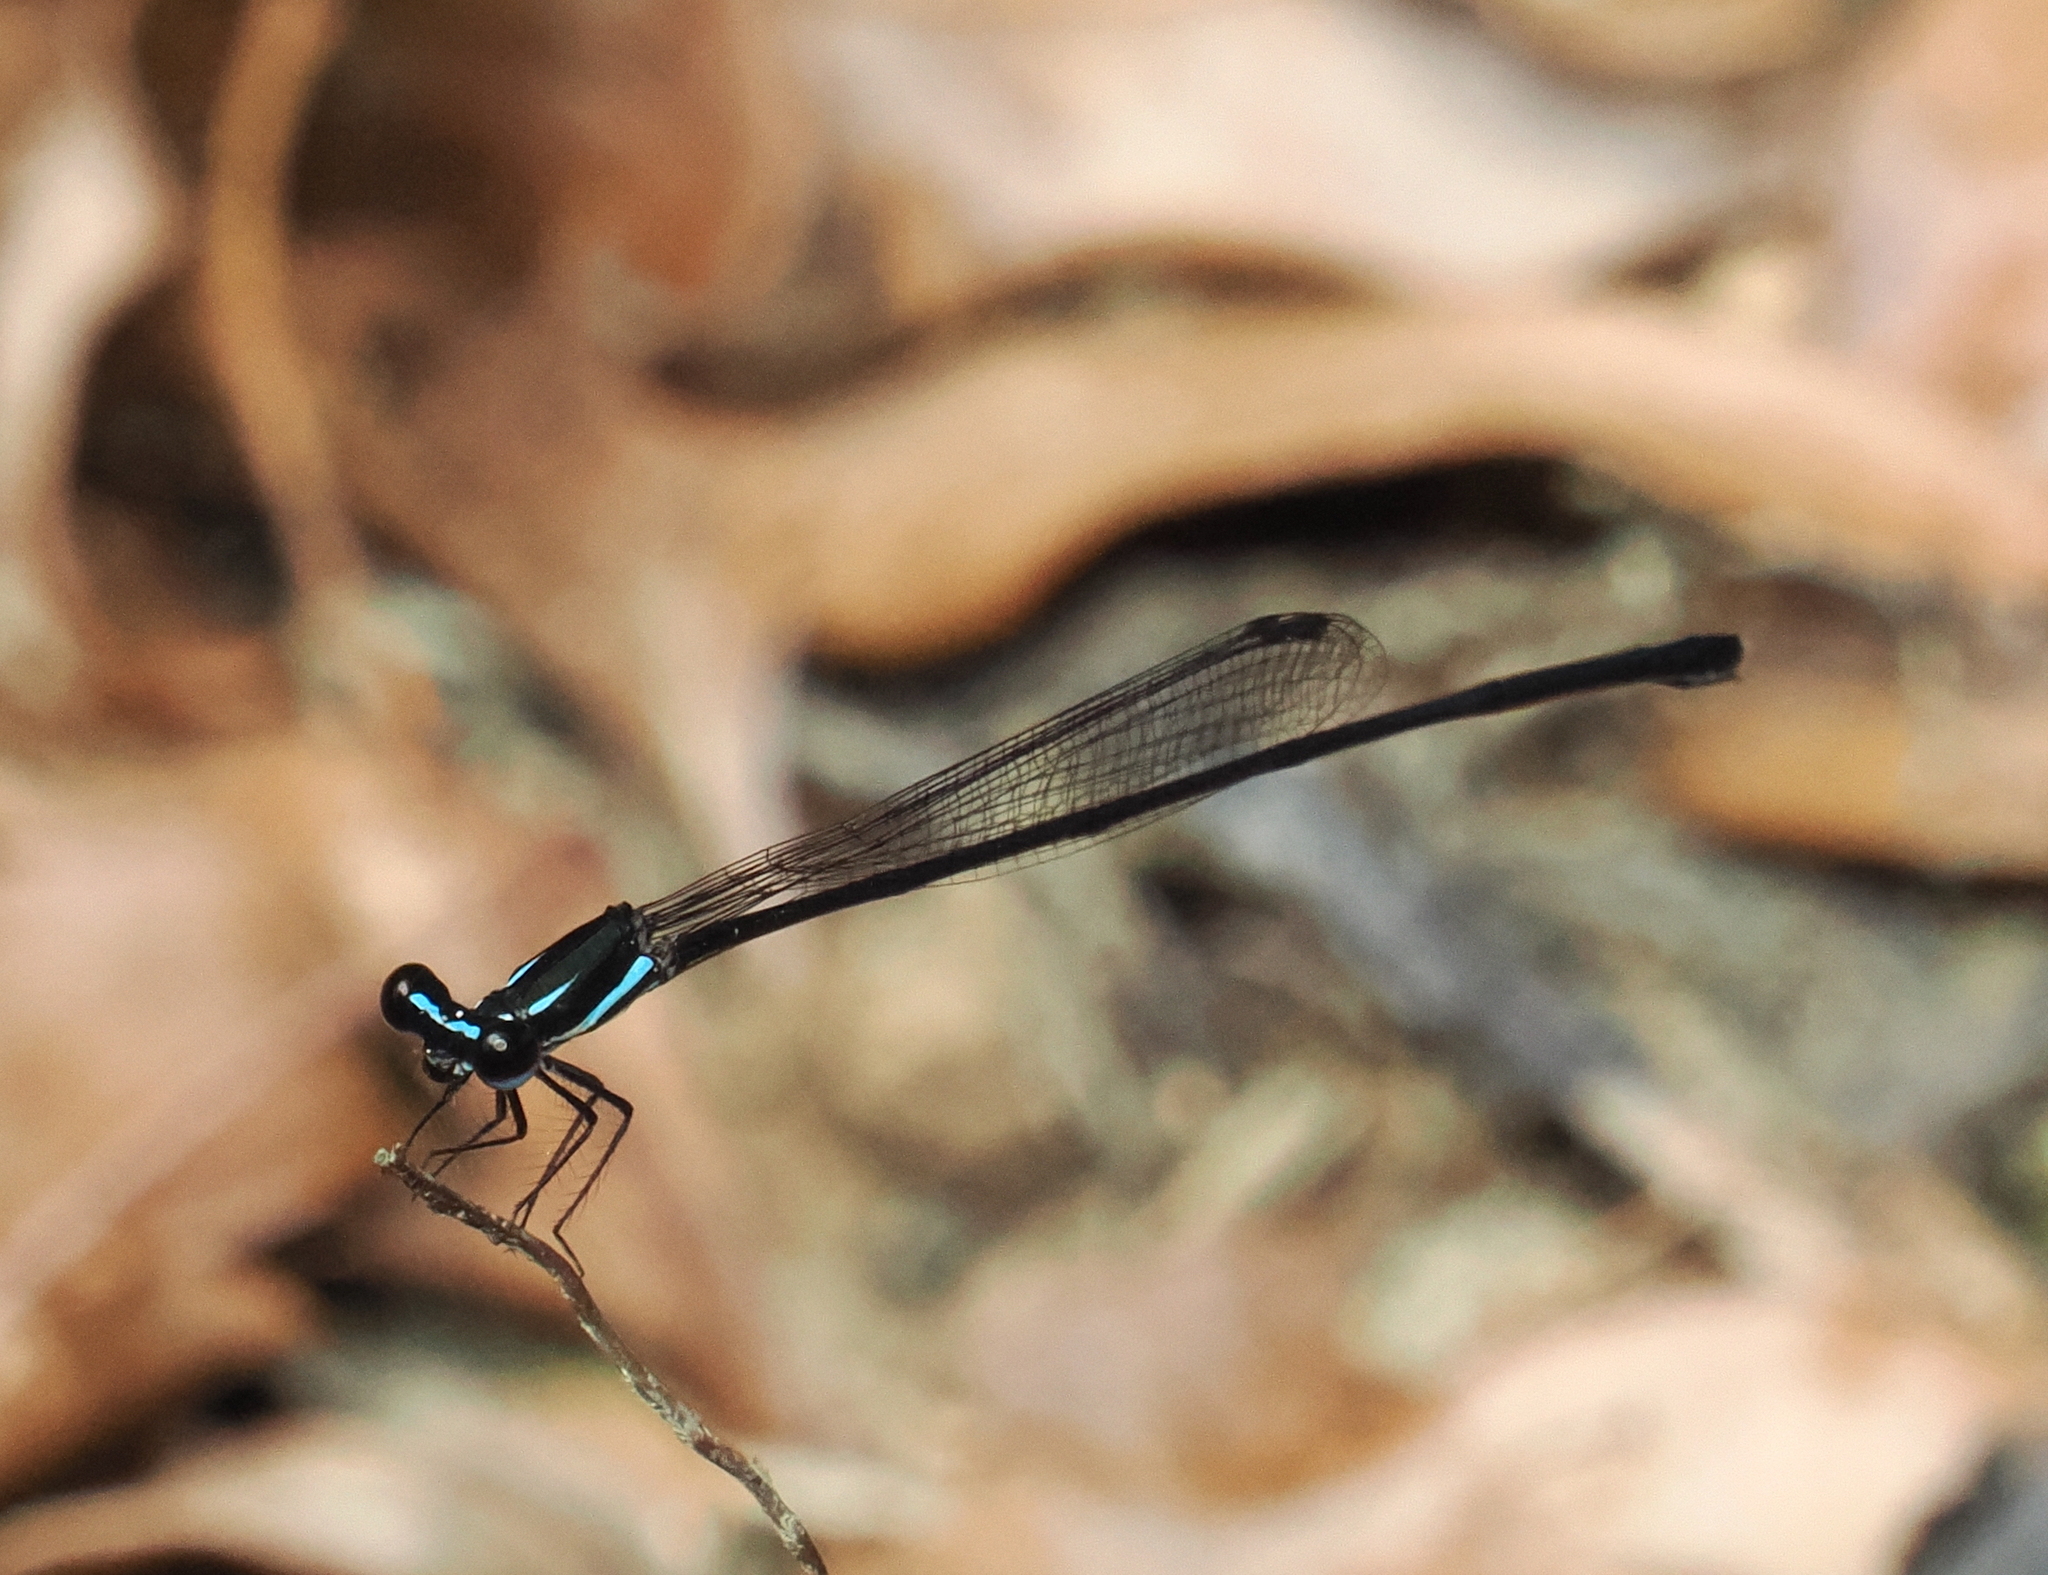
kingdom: Animalia
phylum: Arthropoda
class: Insecta
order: Odonata
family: Platycnemididae
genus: Prodasineura
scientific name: Prodasineura collaris
